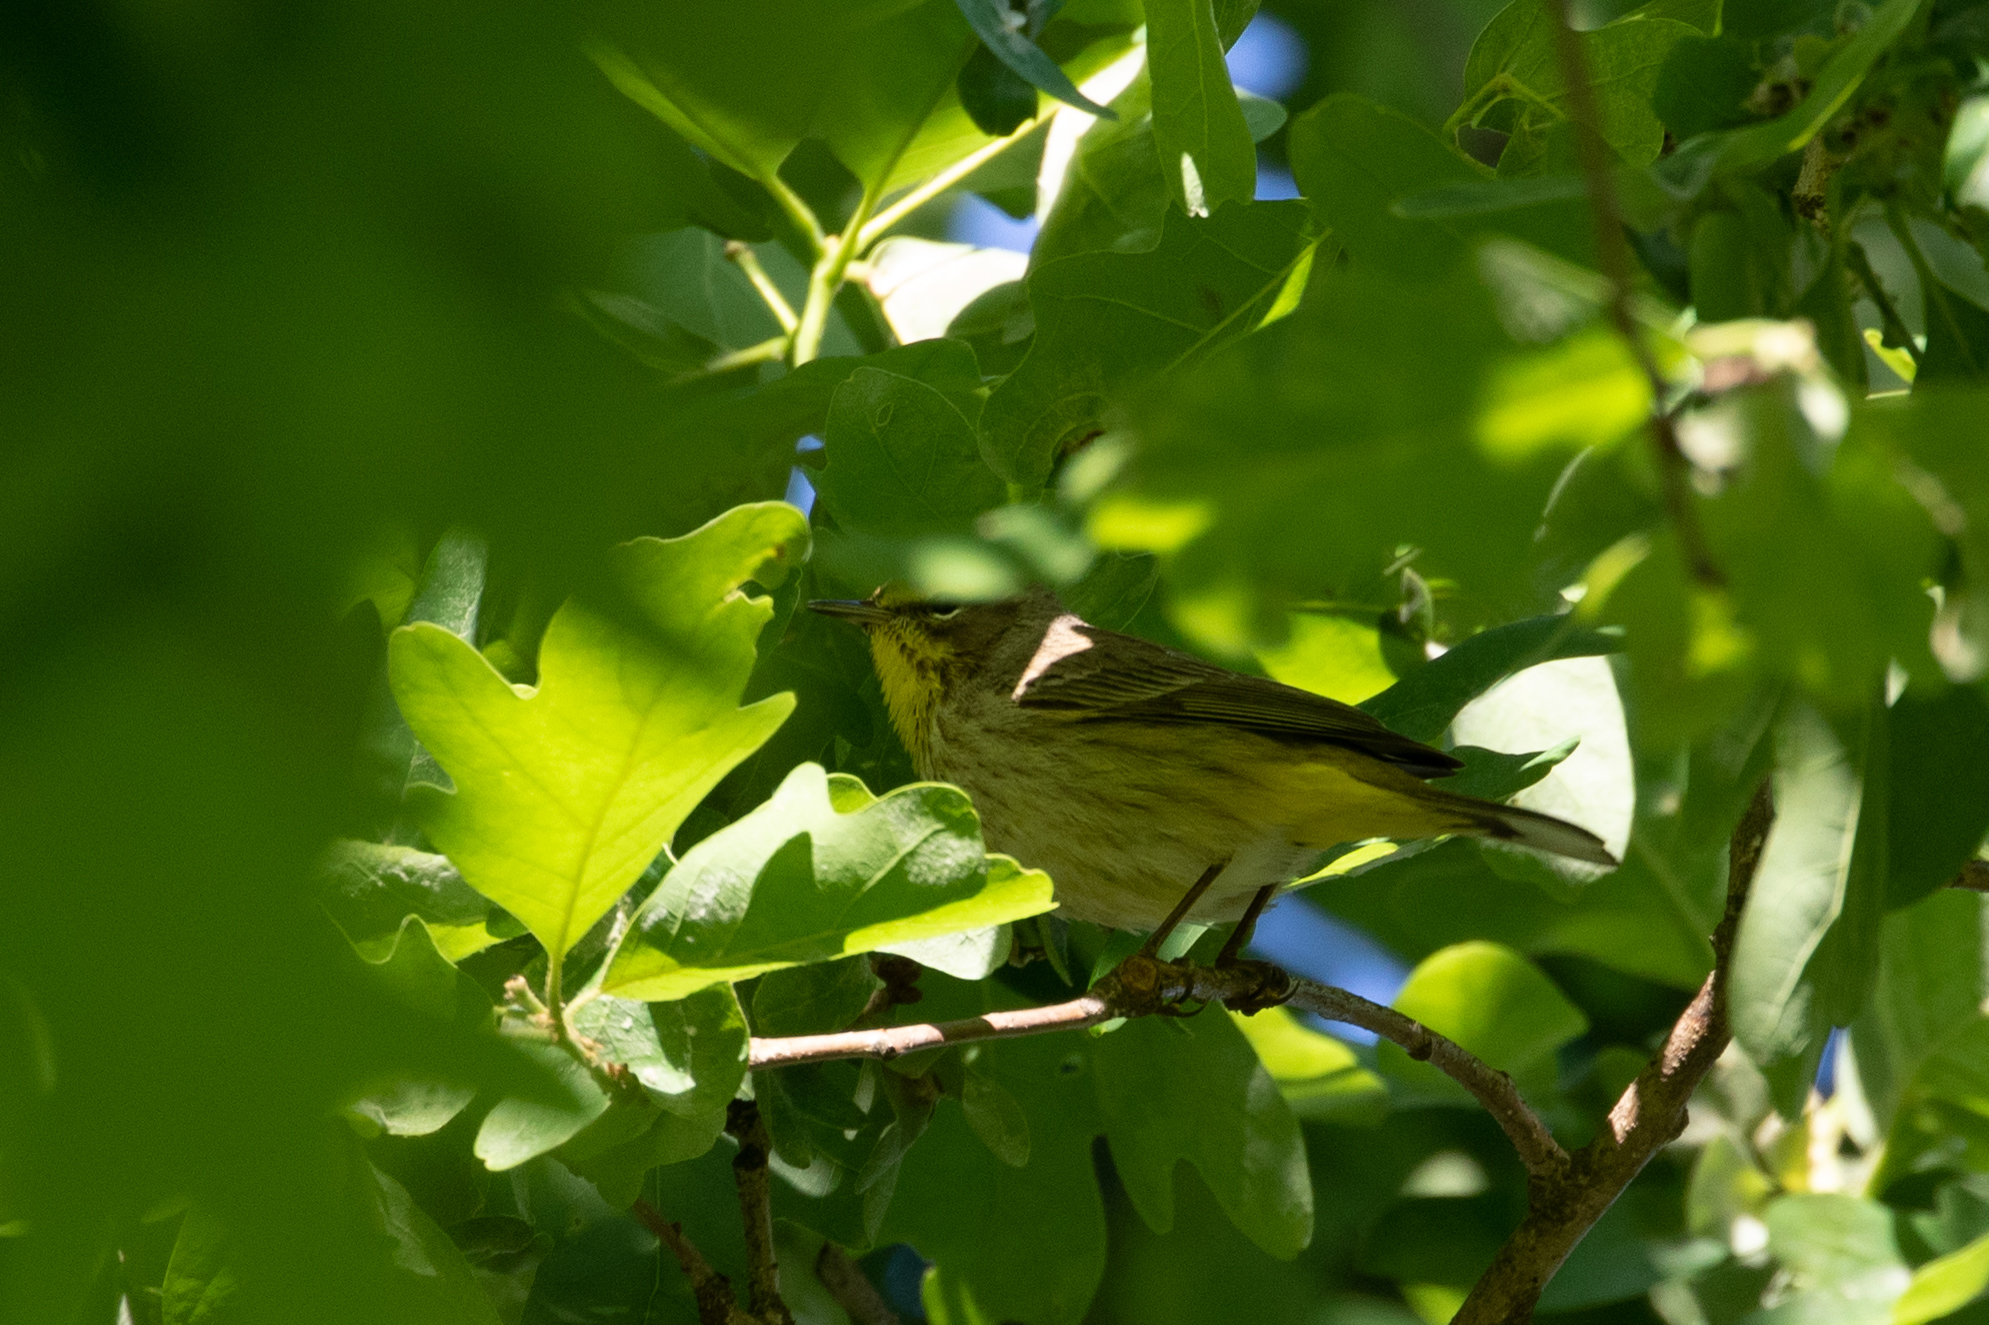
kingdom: Animalia
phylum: Chordata
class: Aves
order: Passeriformes
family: Parulidae
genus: Setophaga
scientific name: Setophaga palmarum
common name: Palm warbler
